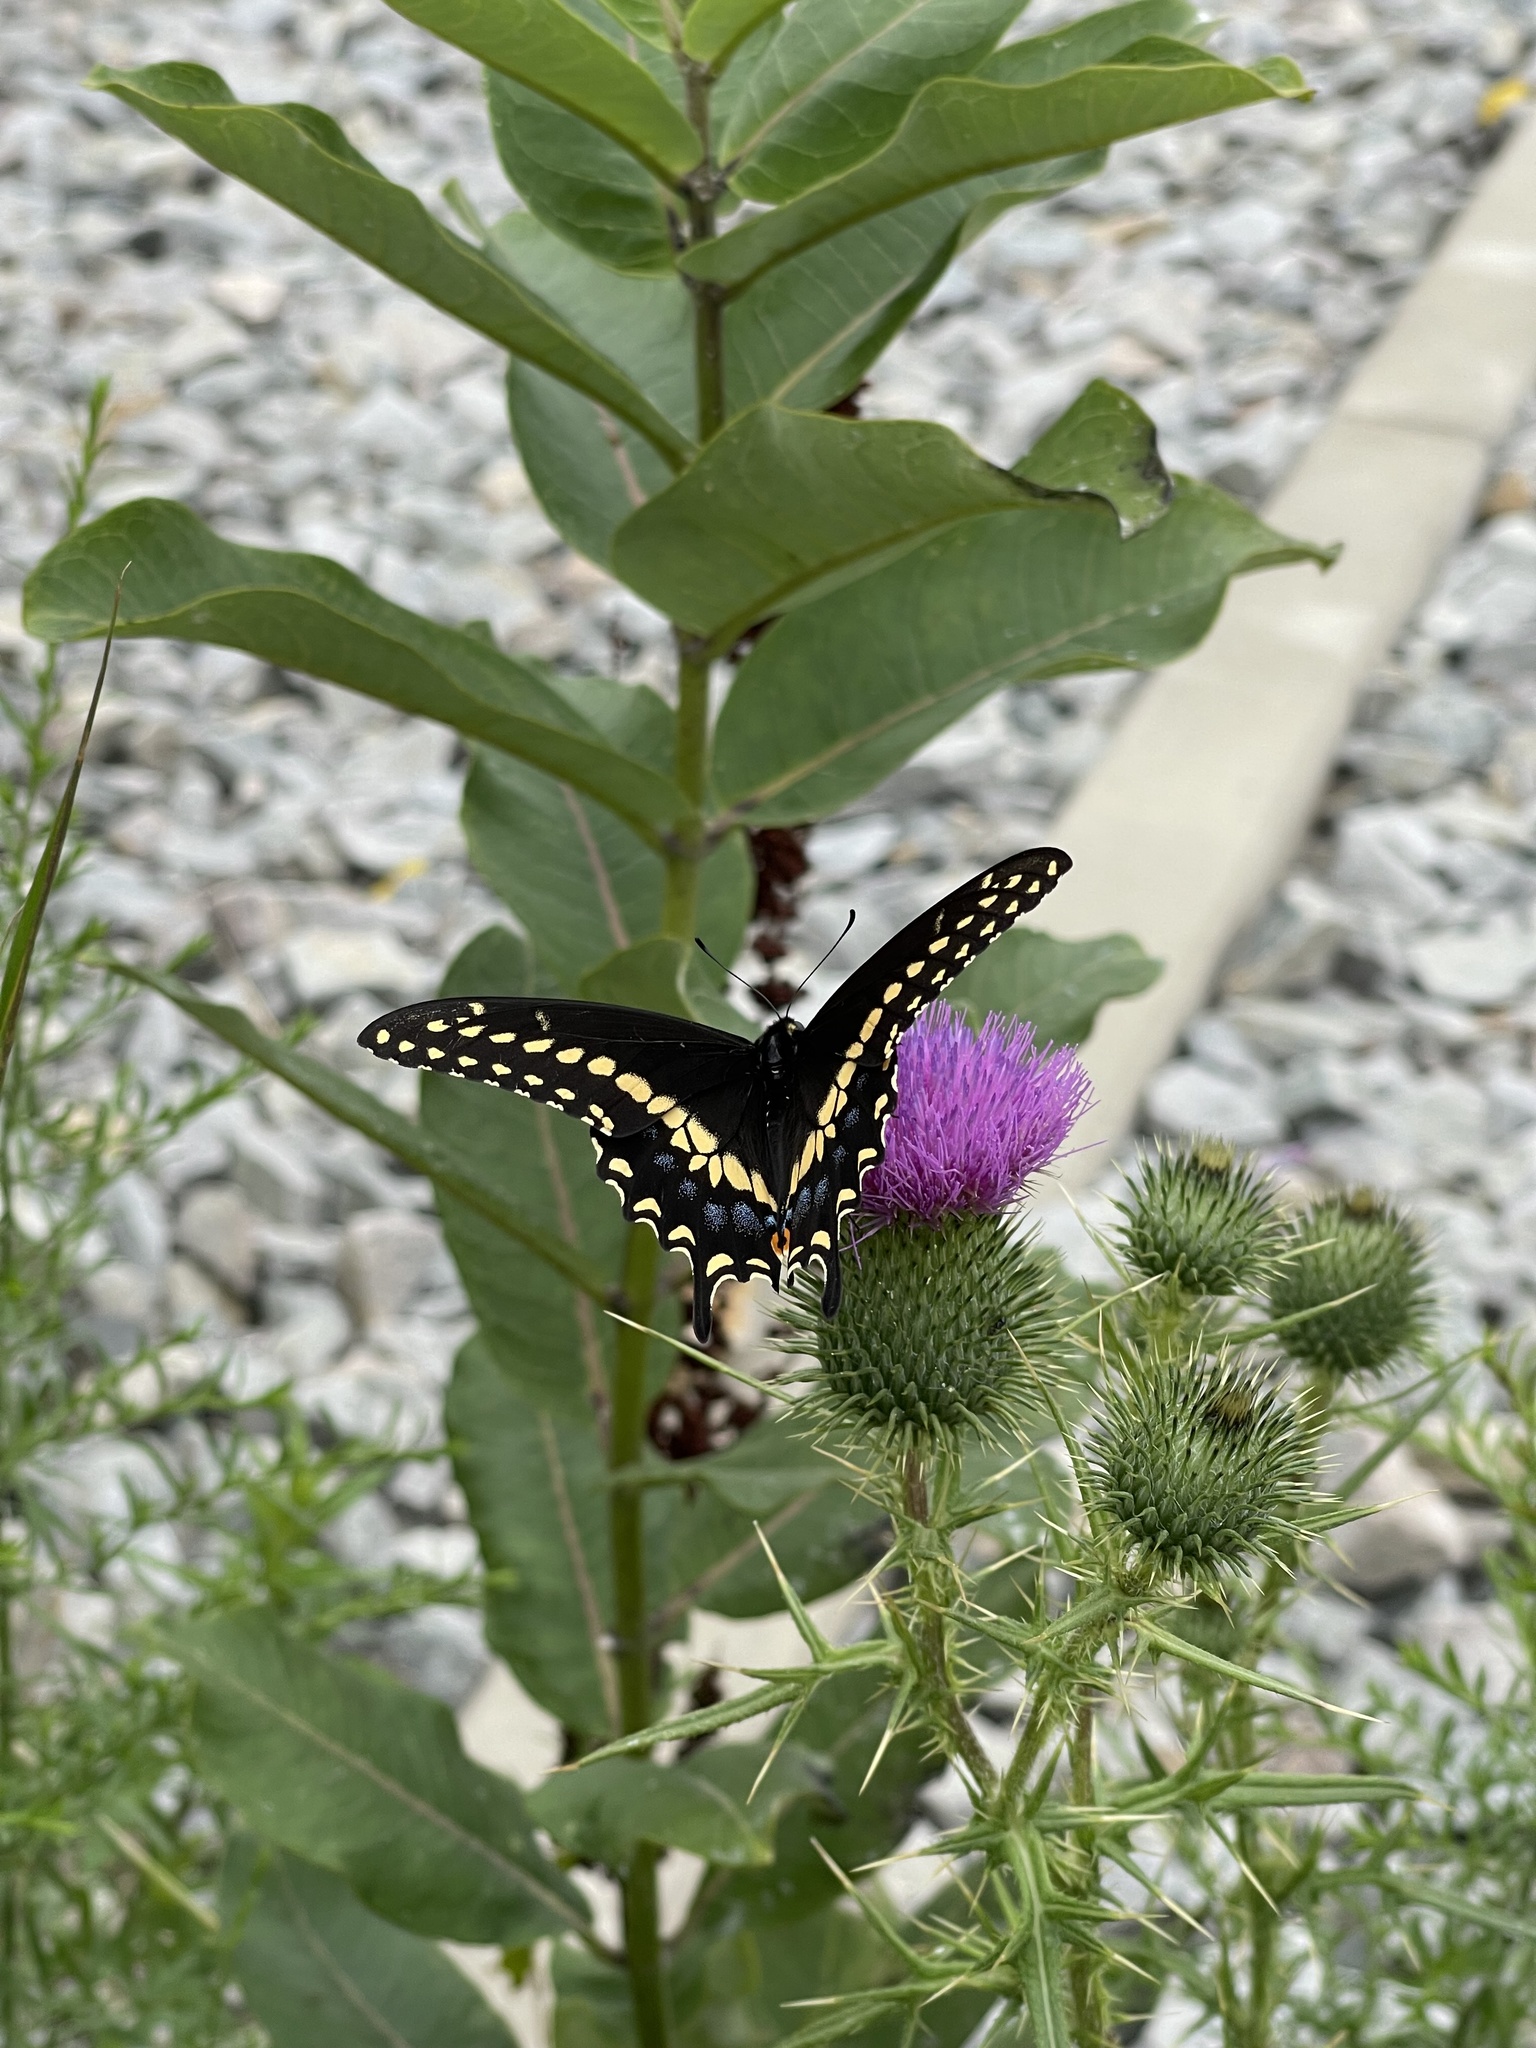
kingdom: Animalia
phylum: Arthropoda
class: Insecta
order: Lepidoptera
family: Papilionidae
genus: Papilio
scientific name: Papilio polyxenes
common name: Black swallowtail
